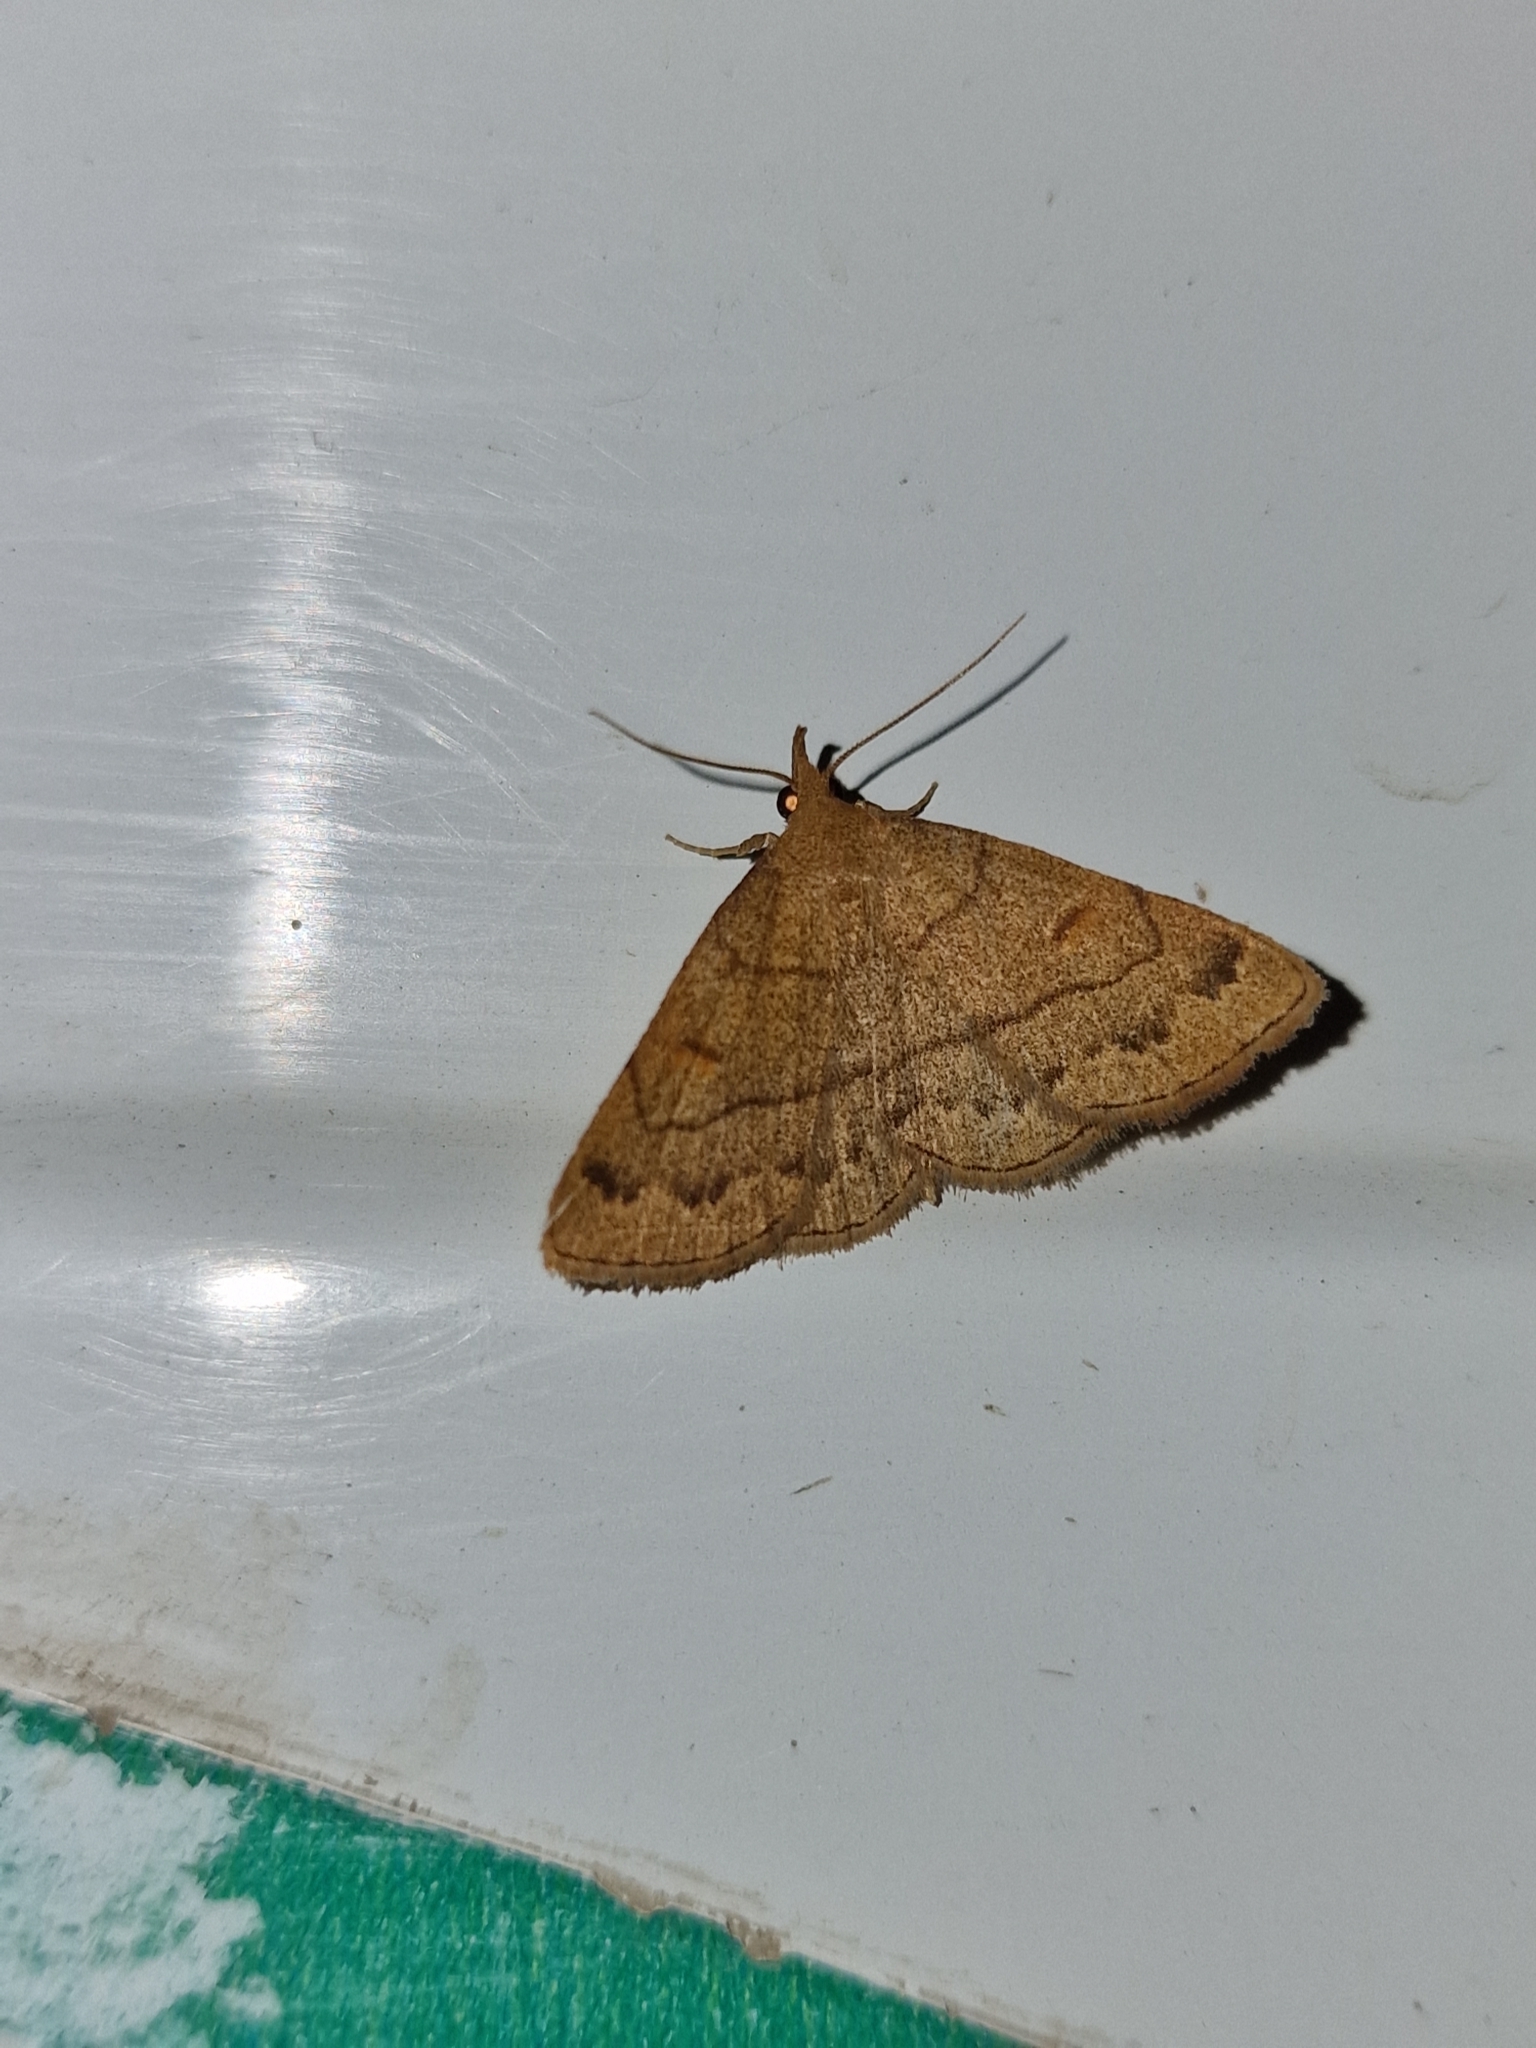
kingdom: Animalia
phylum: Arthropoda
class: Insecta
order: Lepidoptera
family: Erebidae
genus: Paracolax
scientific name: Paracolax tristalis
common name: Clay fan-foot
